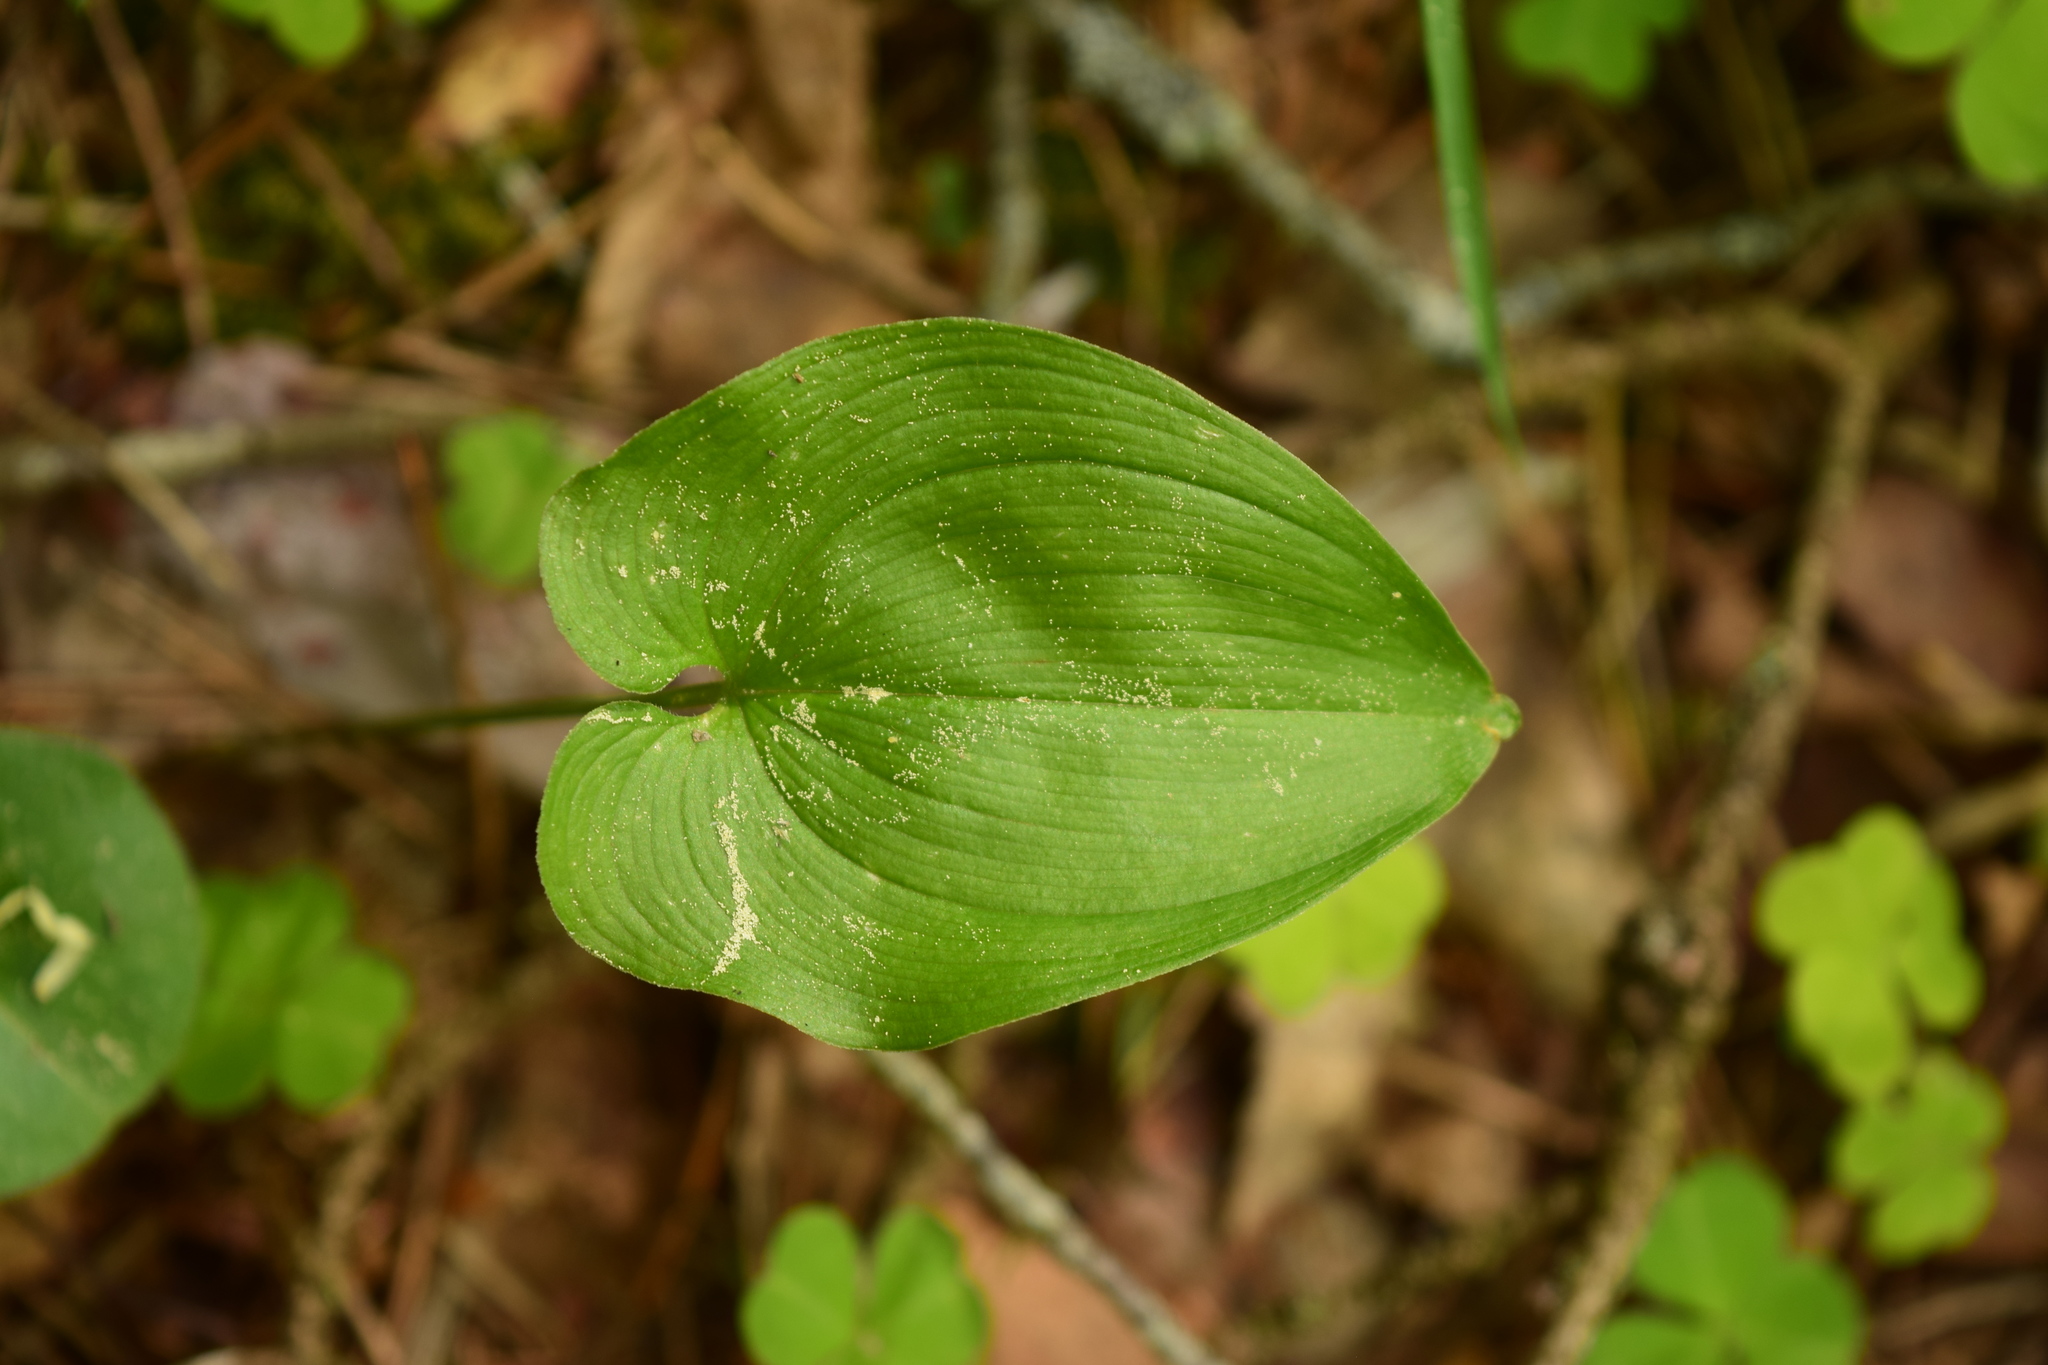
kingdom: Plantae
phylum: Tracheophyta
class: Liliopsida
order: Asparagales
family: Asparagaceae
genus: Maianthemum
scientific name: Maianthemum bifolium
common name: May lily
